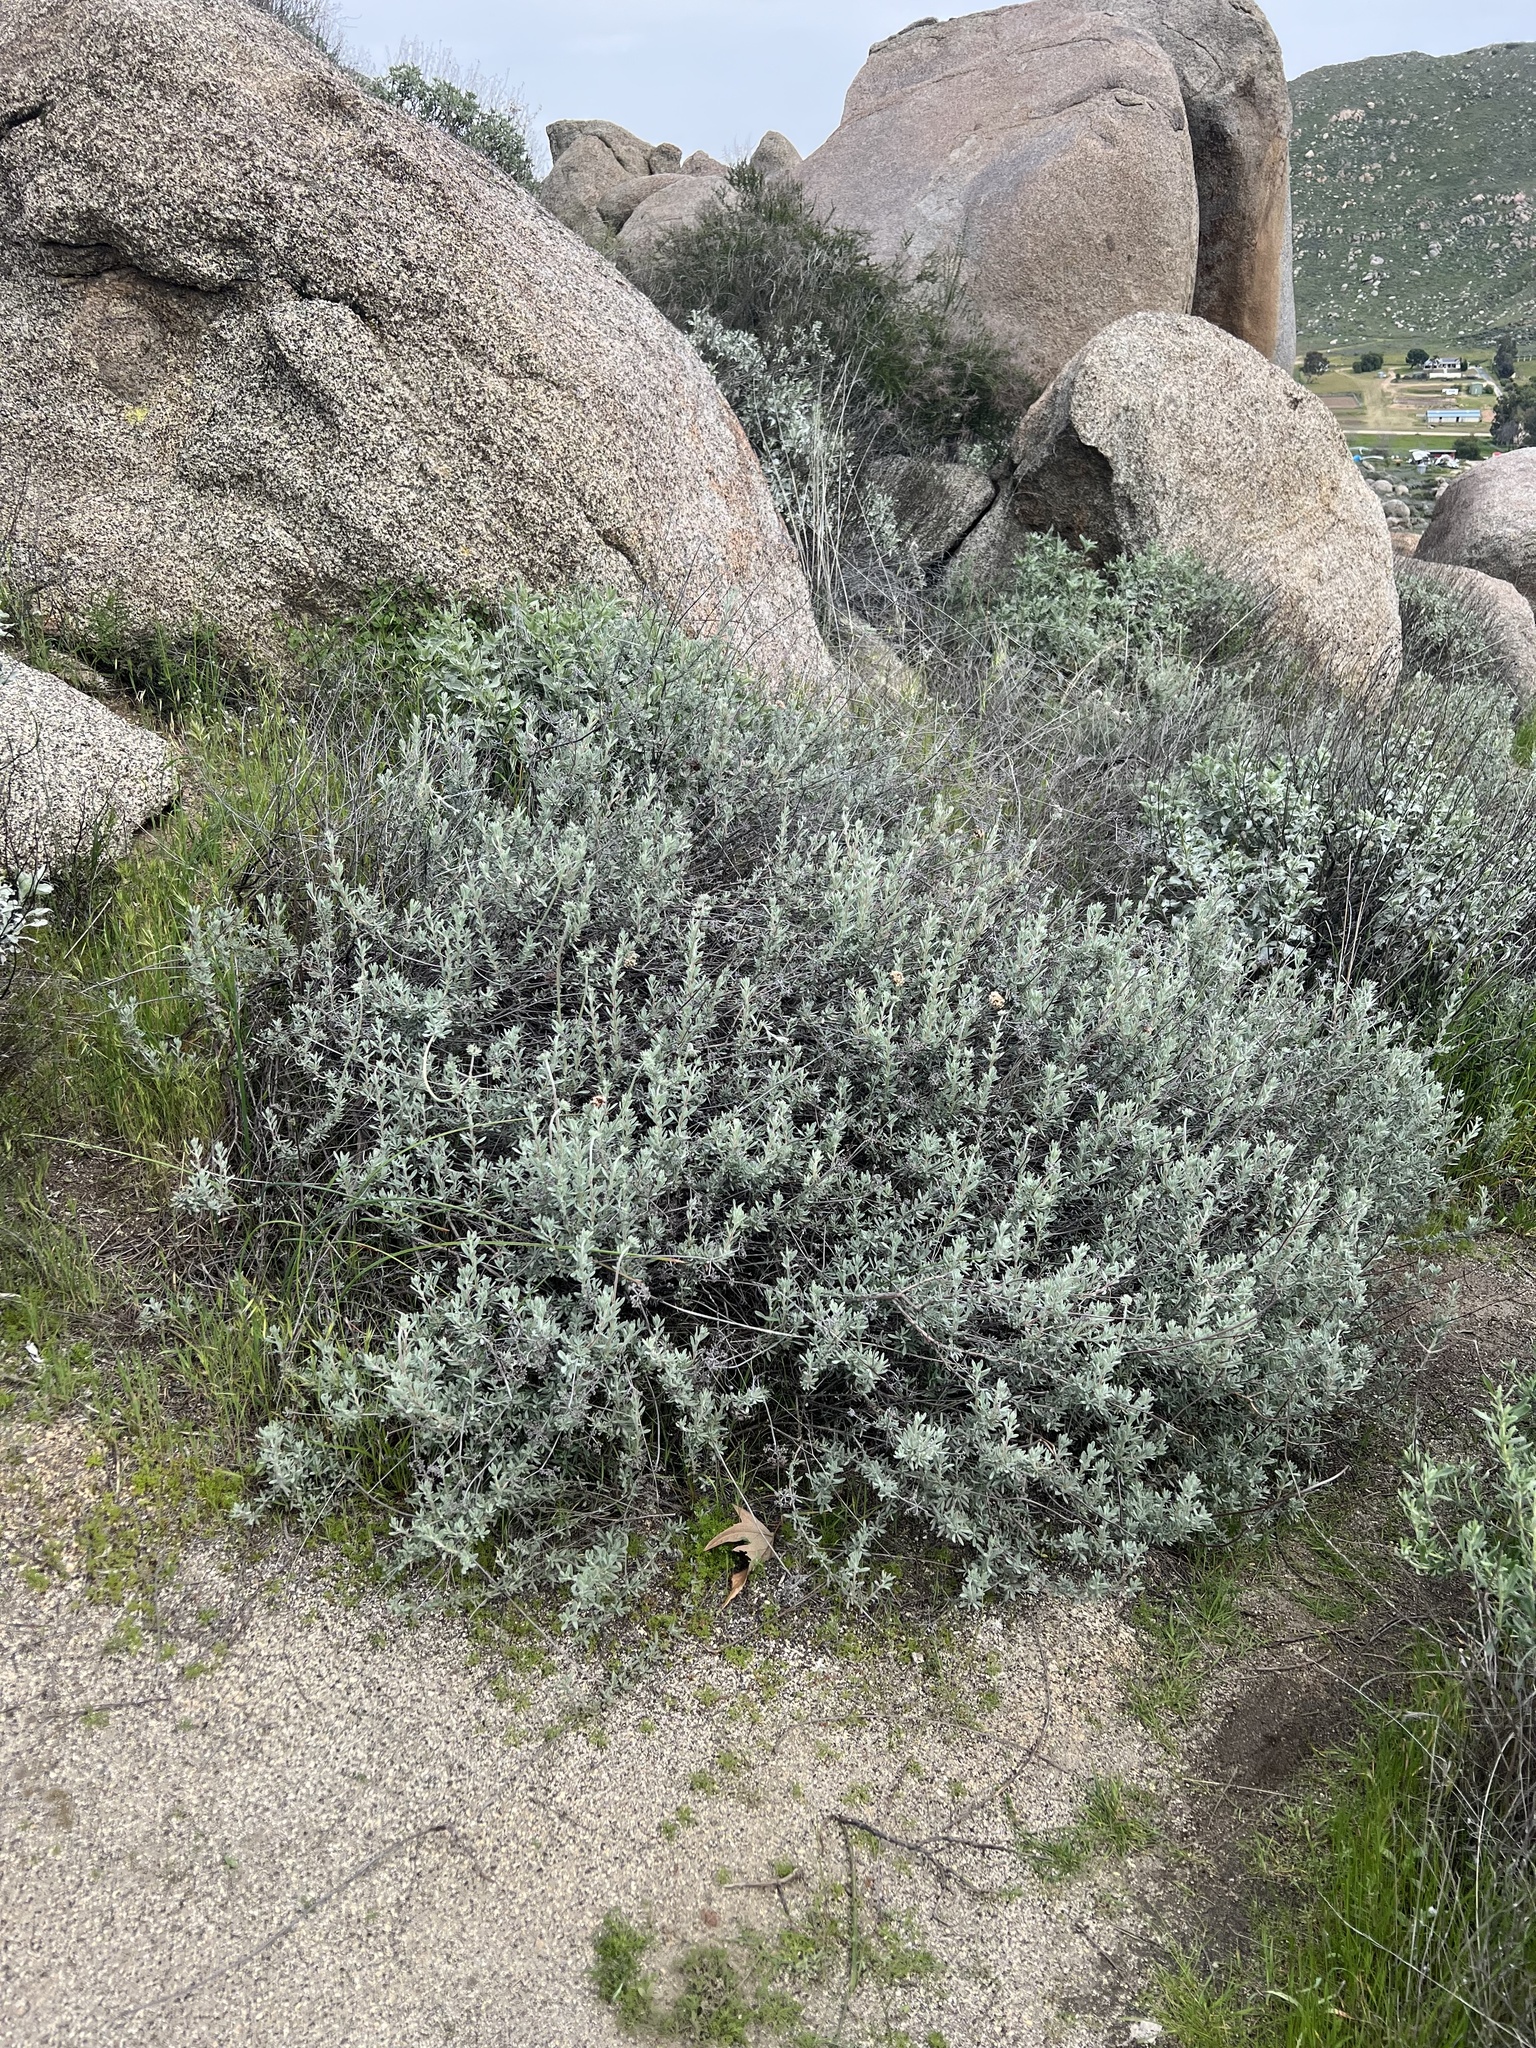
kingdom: Plantae
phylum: Tracheophyta
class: Magnoliopsida
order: Caryophyllales
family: Polygonaceae
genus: Eriogonum
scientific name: Eriogonum fasciculatum
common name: California wild buckwheat
